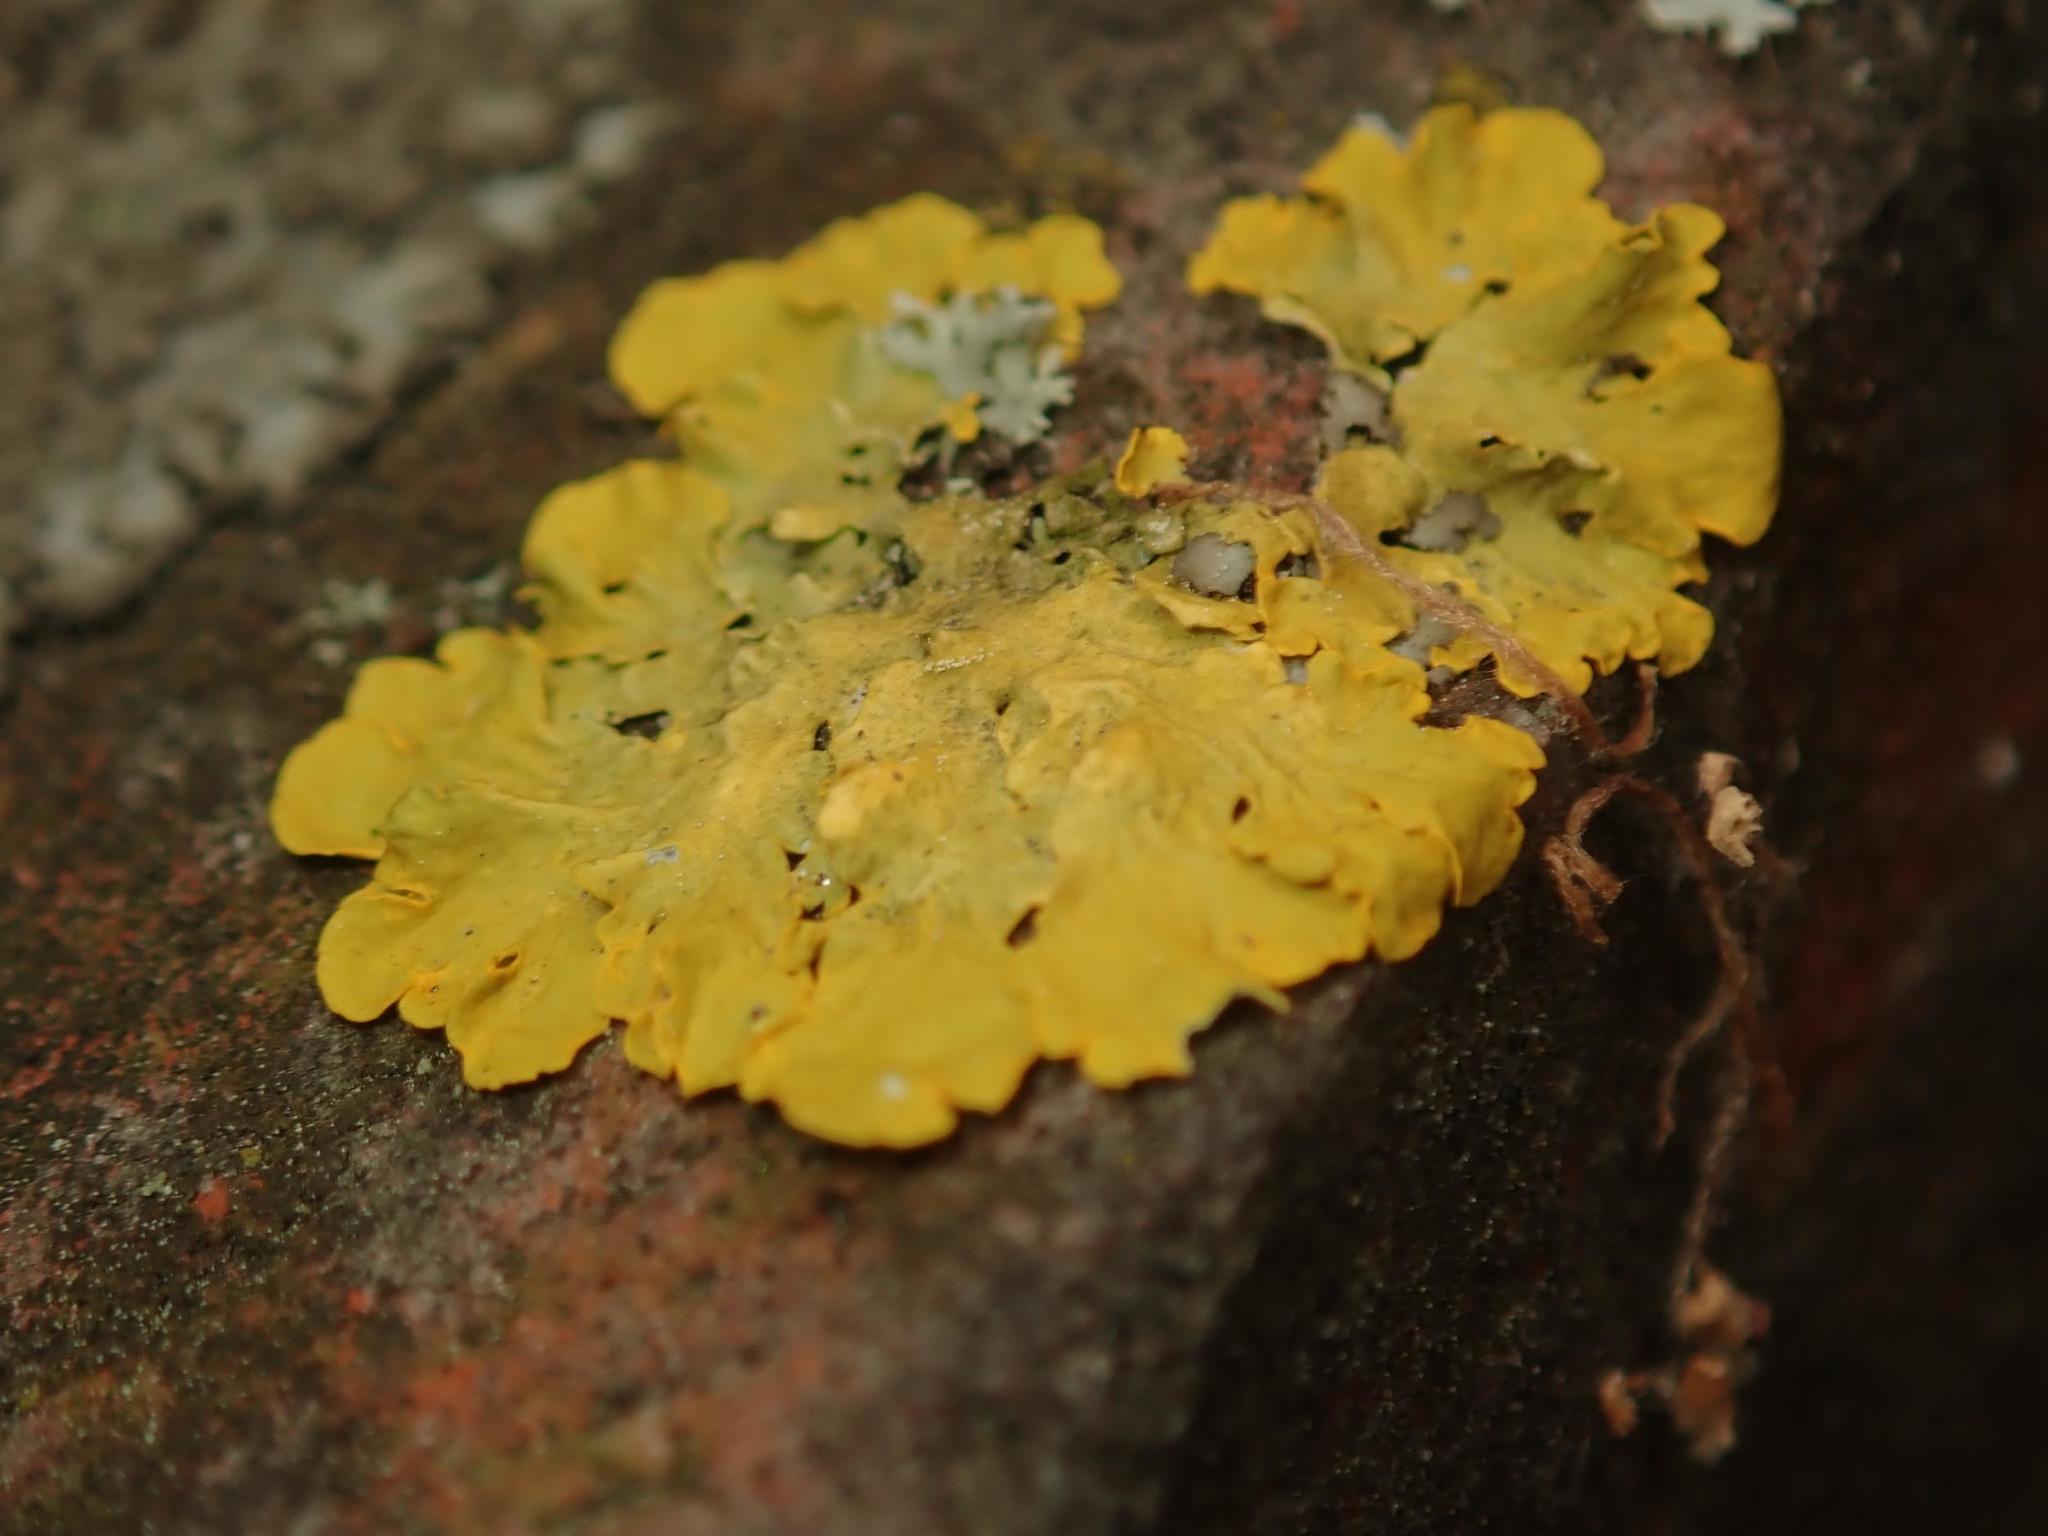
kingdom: Fungi
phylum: Ascomycota
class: Lecanoromycetes
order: Teloschistales
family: Teloschistaceae
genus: Xanthoria
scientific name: Xanthoria parietina
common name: Common orange lichen
